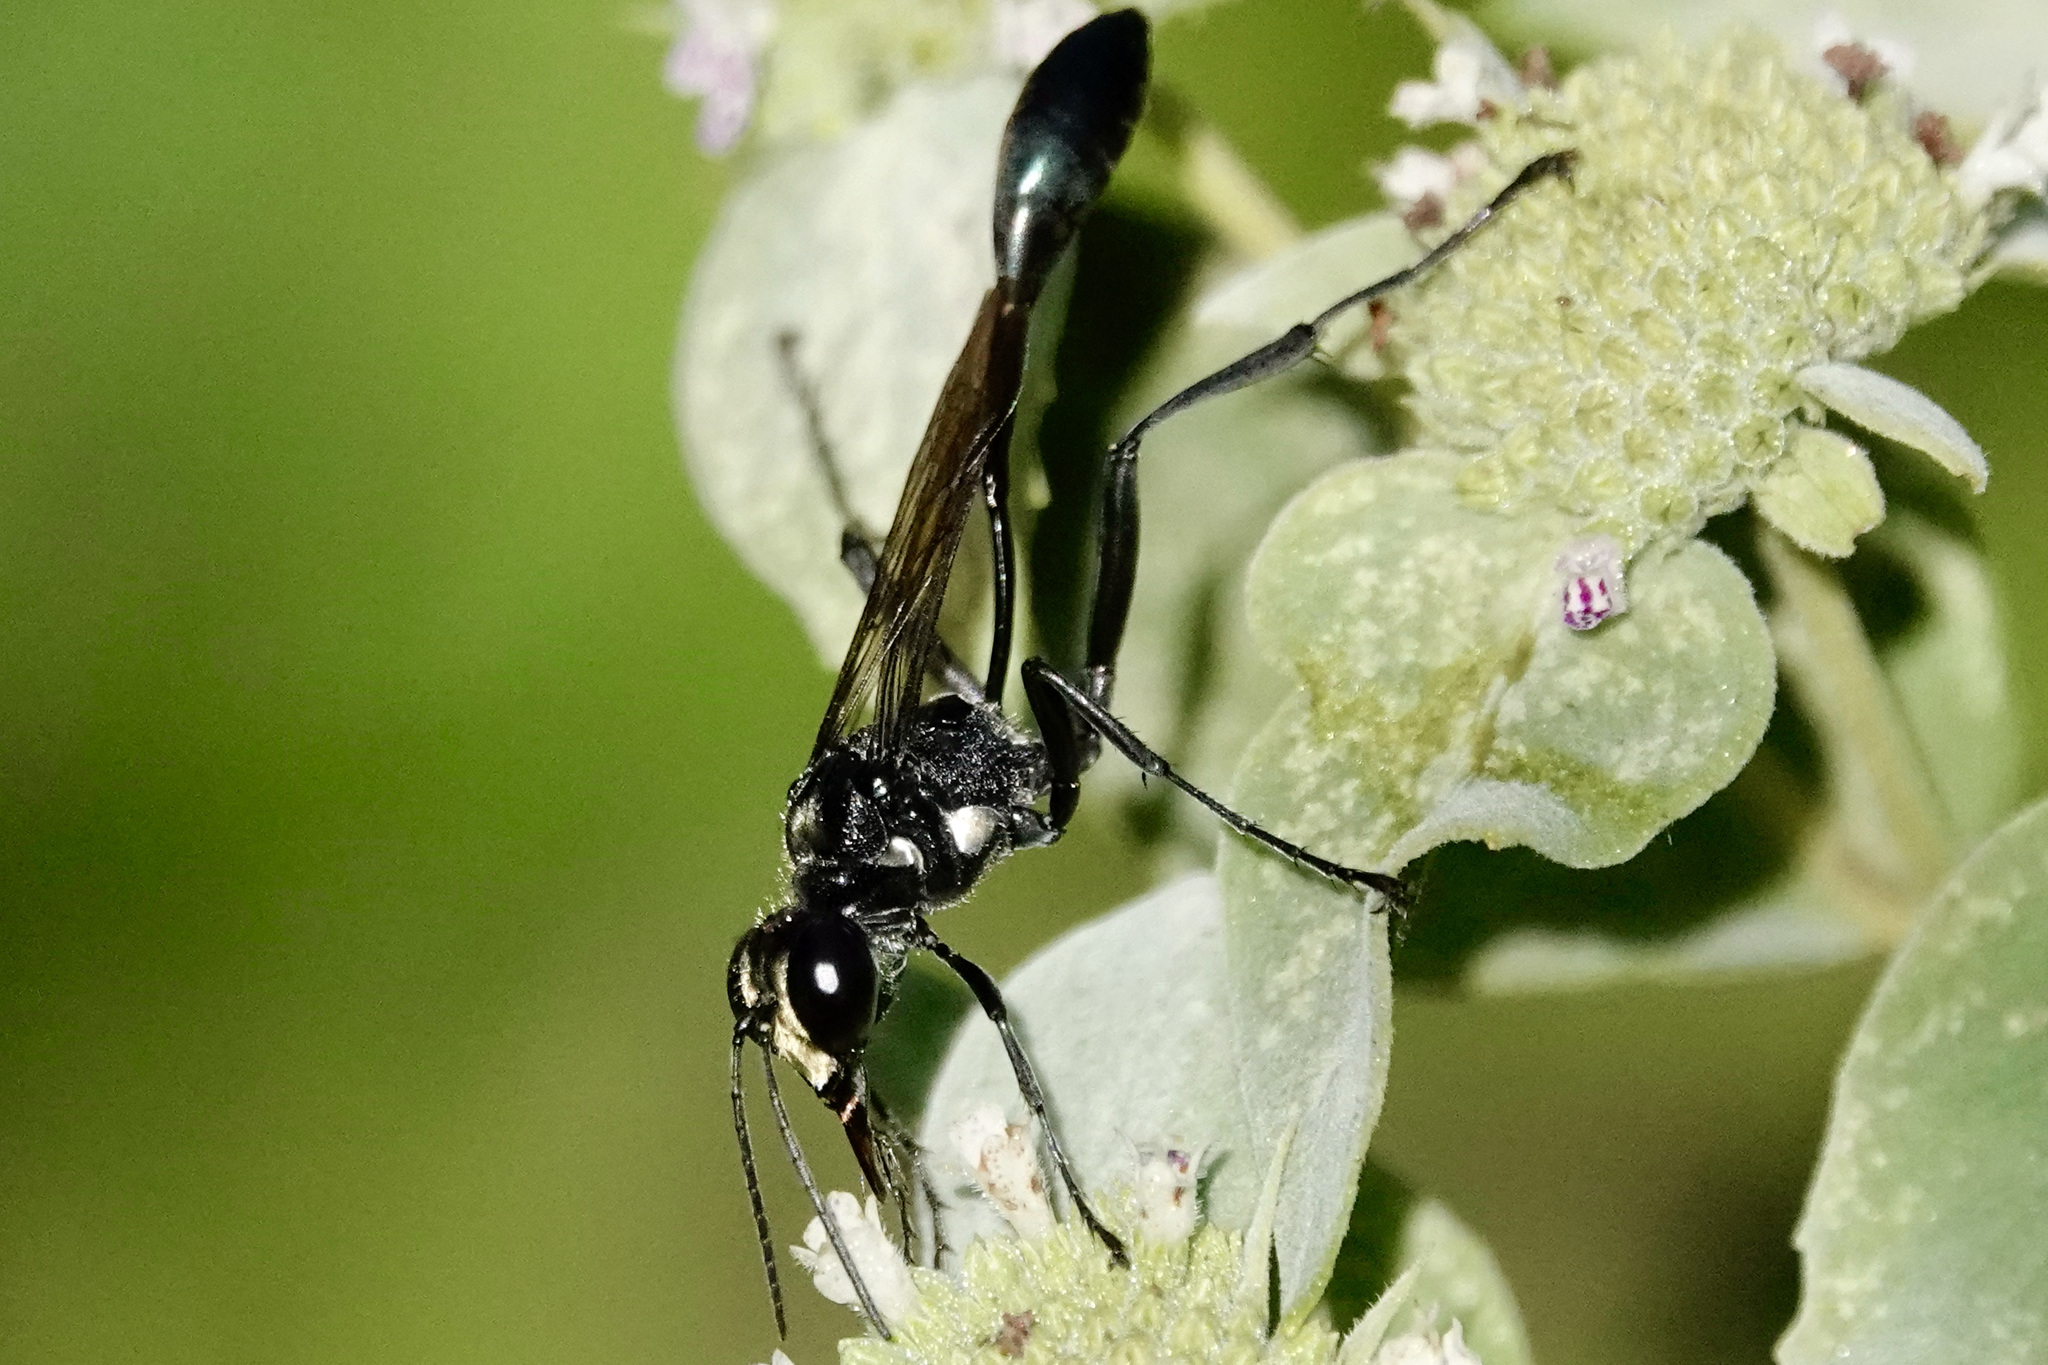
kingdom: Animalia
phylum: Arthropoda
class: Insecta
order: Hymenoptera
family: Sphecidae
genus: Eremnophila
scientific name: Eremnophila aureonotata
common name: Gold-marked thread-waisted wasp
